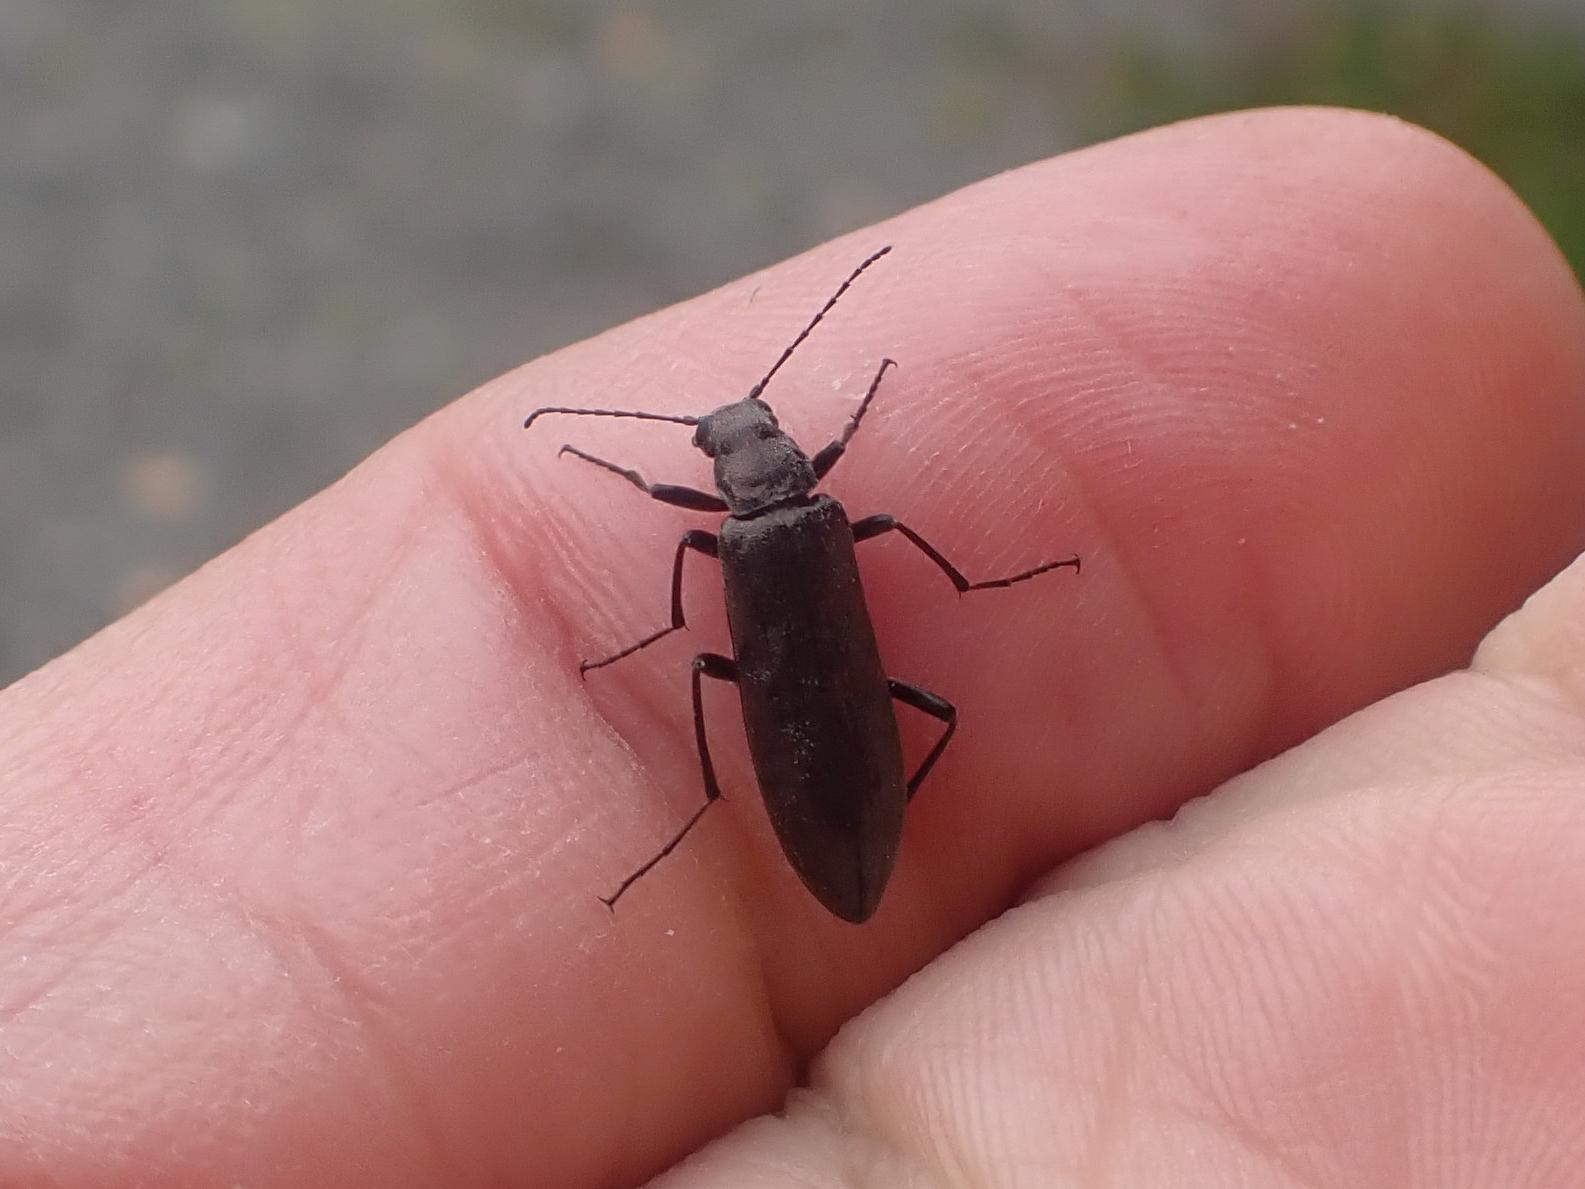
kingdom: Animalia
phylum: Arthropoda
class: Insecta
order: Coleoptera
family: Stenotrachelidae
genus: Stenotrachelus
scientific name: Stenotrachelus aeneus
